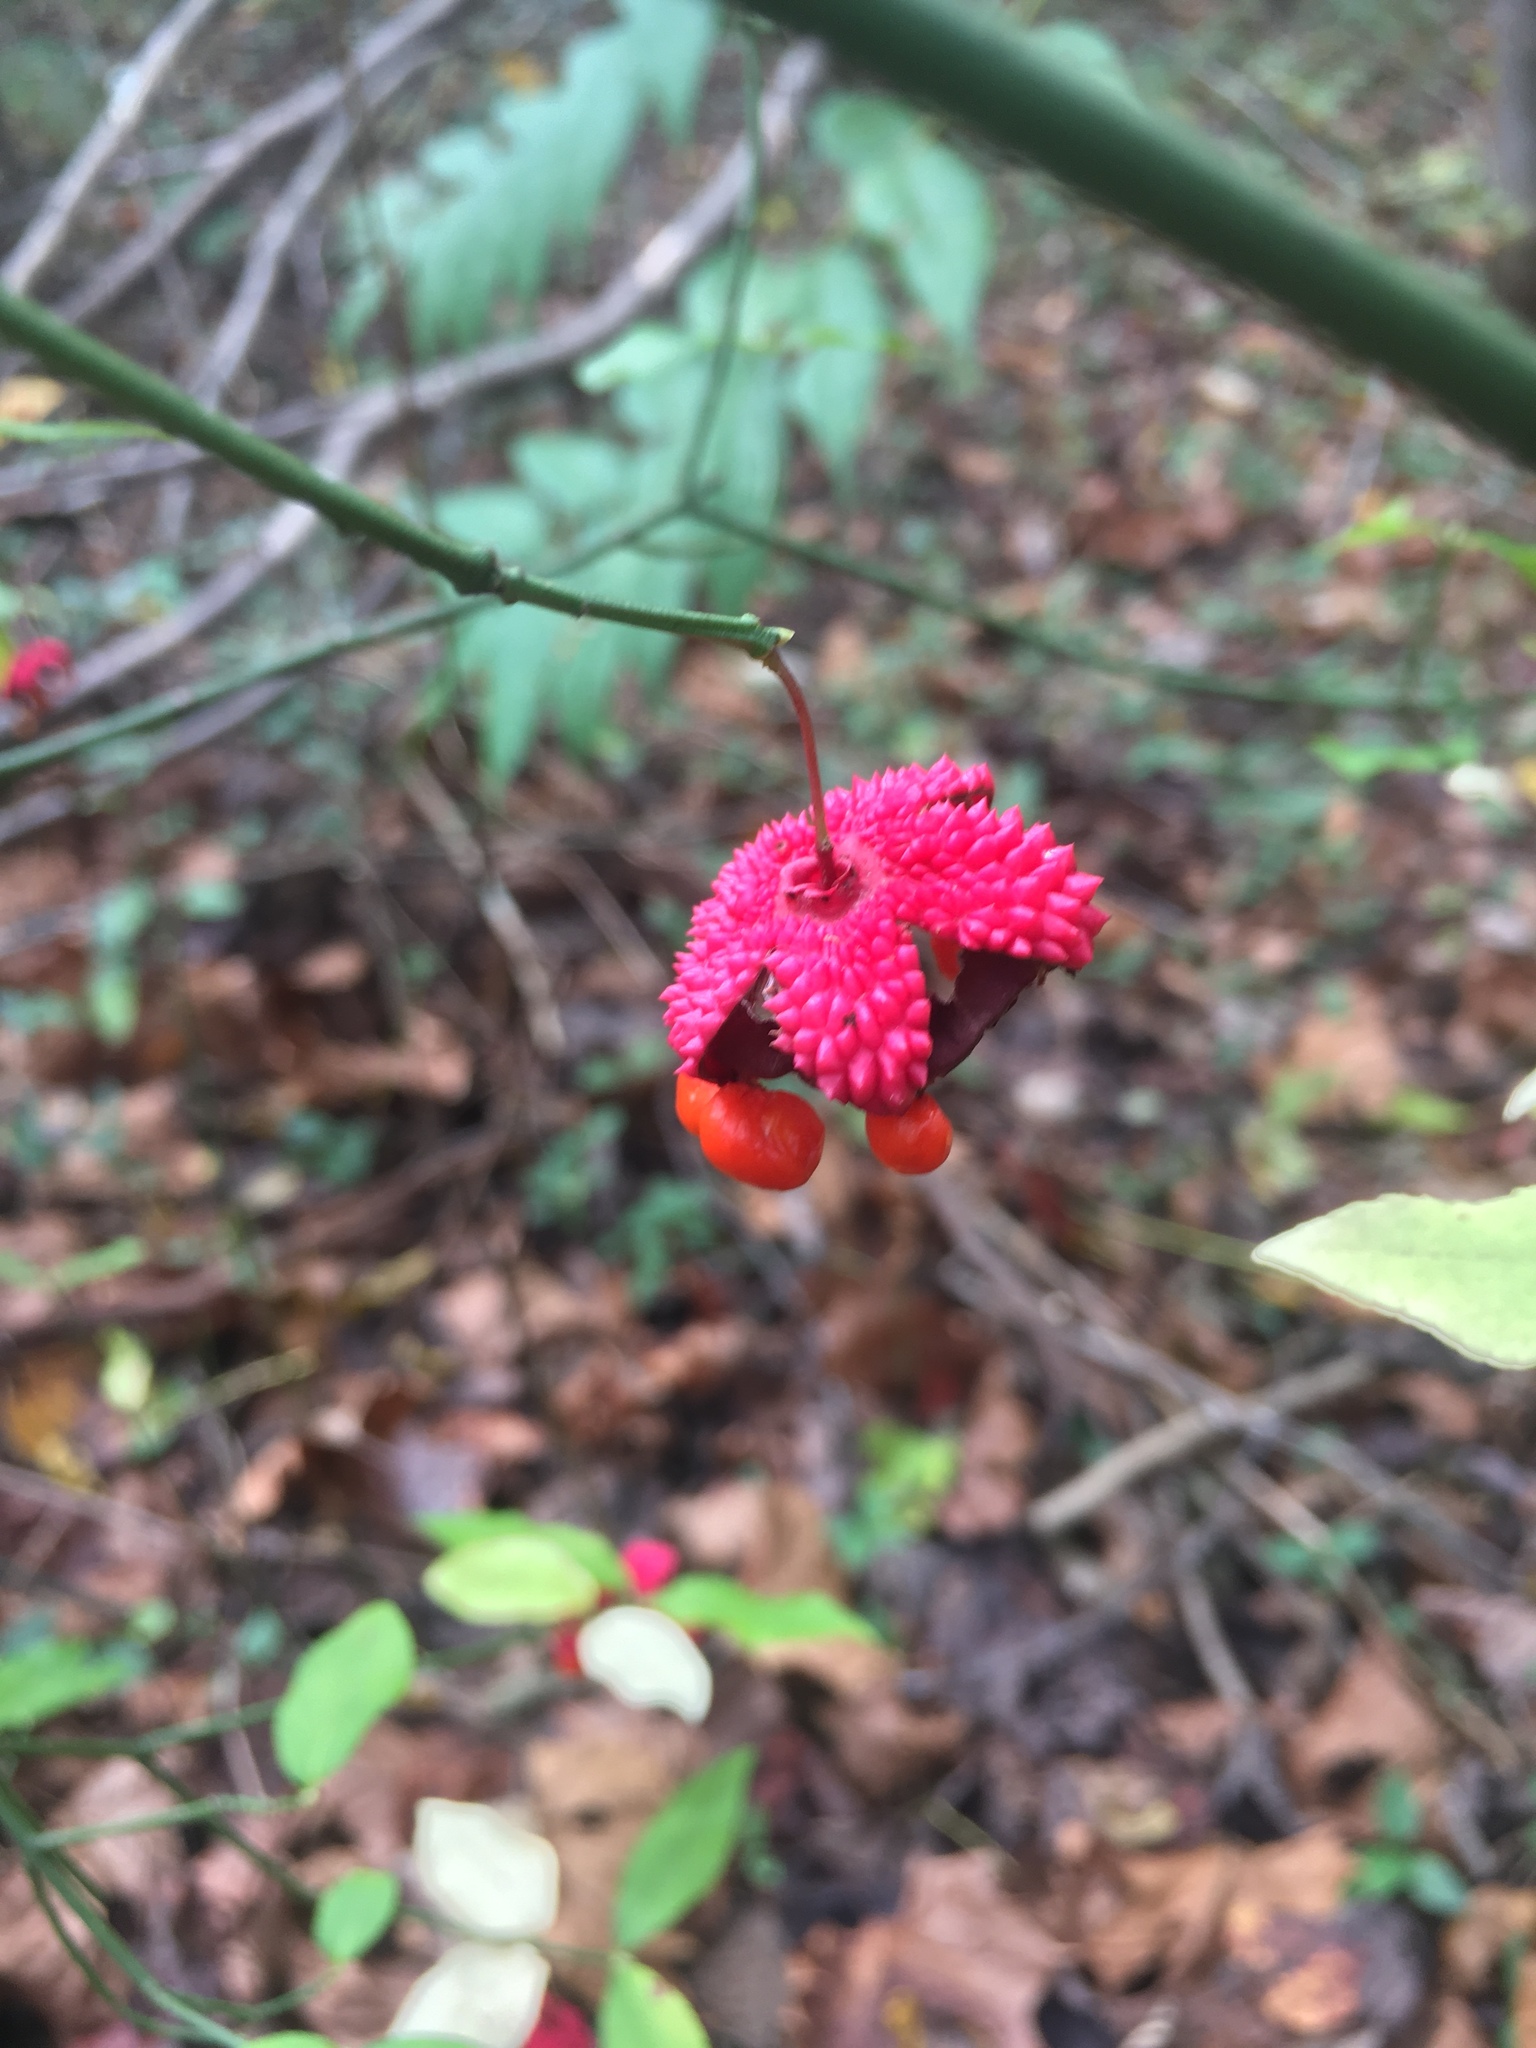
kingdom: Plantae
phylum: Tracheophyta
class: Magnoliopsida
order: Celastrales
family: Celastraceae
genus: Euonymus
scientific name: Euonymus americanus
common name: Bursting-heart
